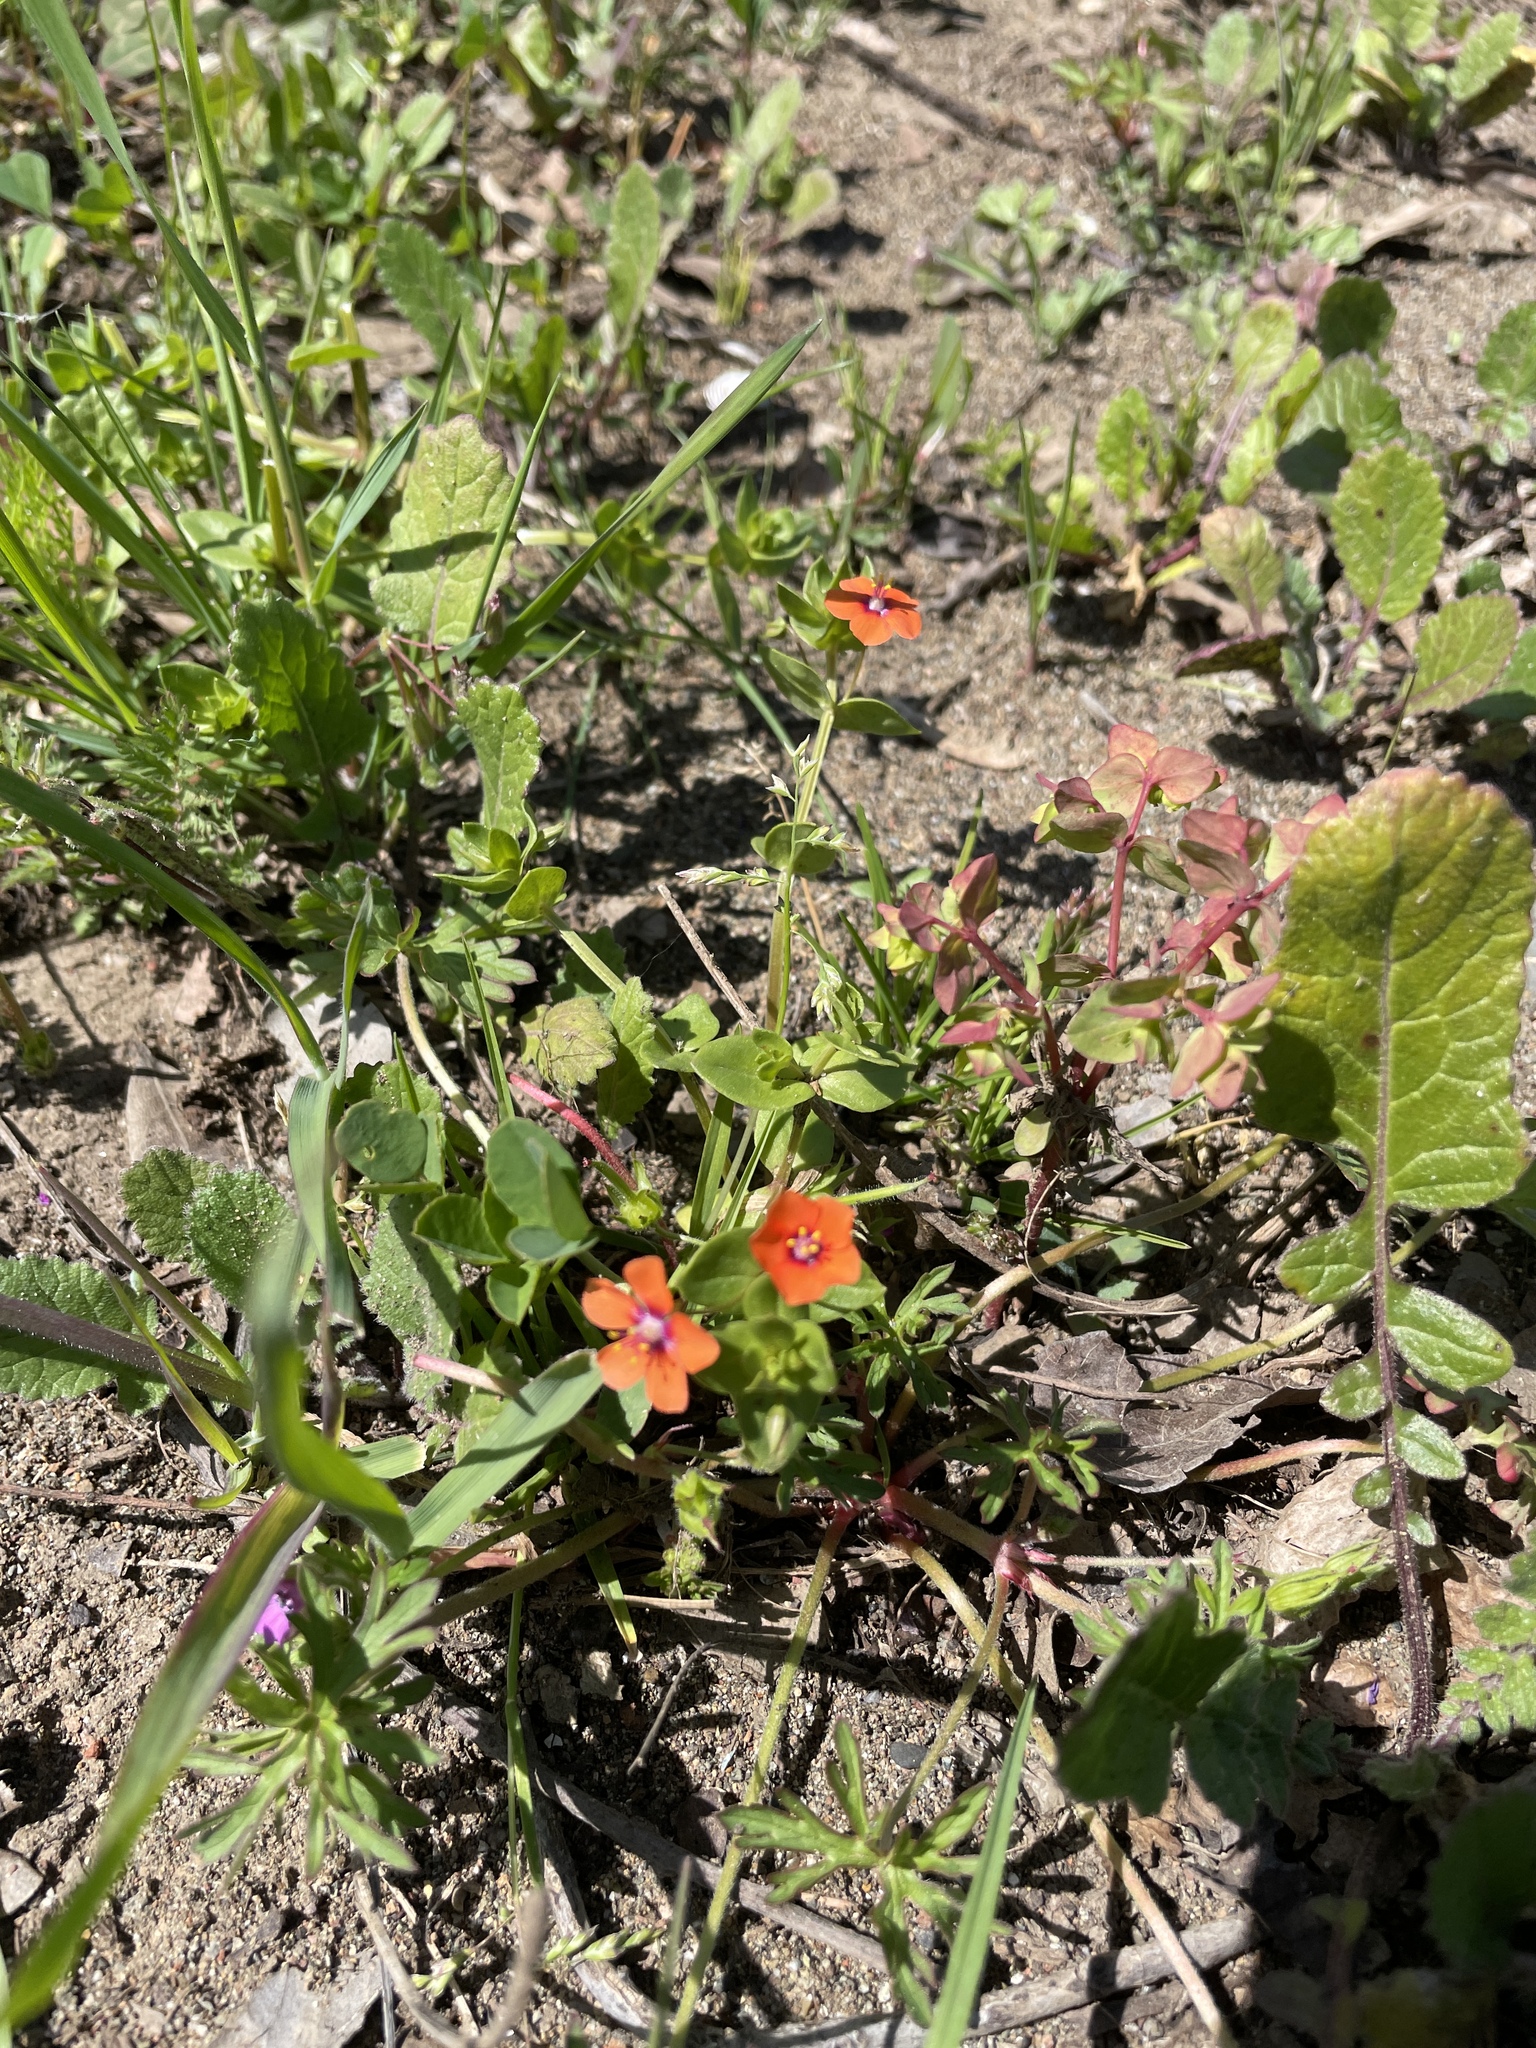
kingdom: Plantae
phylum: Tracheophyta
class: Magnoliopsida
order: Ericales
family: Primulaceae
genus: Lysimachia
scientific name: Lysimachia arvensis
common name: Scarlet pimpernel
